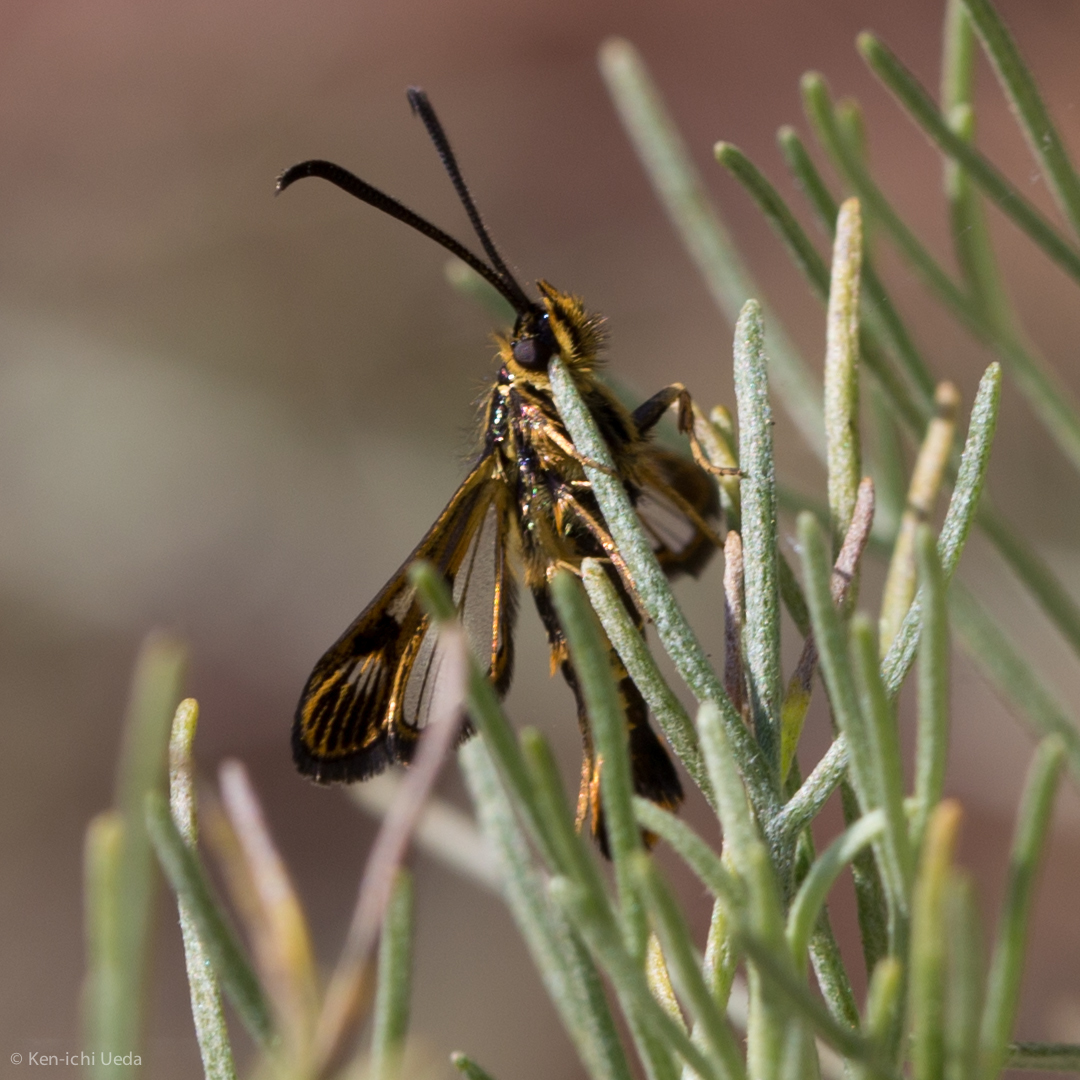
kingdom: Animalia
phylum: Arthropoda
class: Insecta
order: Lepidoptera
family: Sesiidae
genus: Synanthedon
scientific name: Synanthedon bibionipennis
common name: Strawberry crown moth
